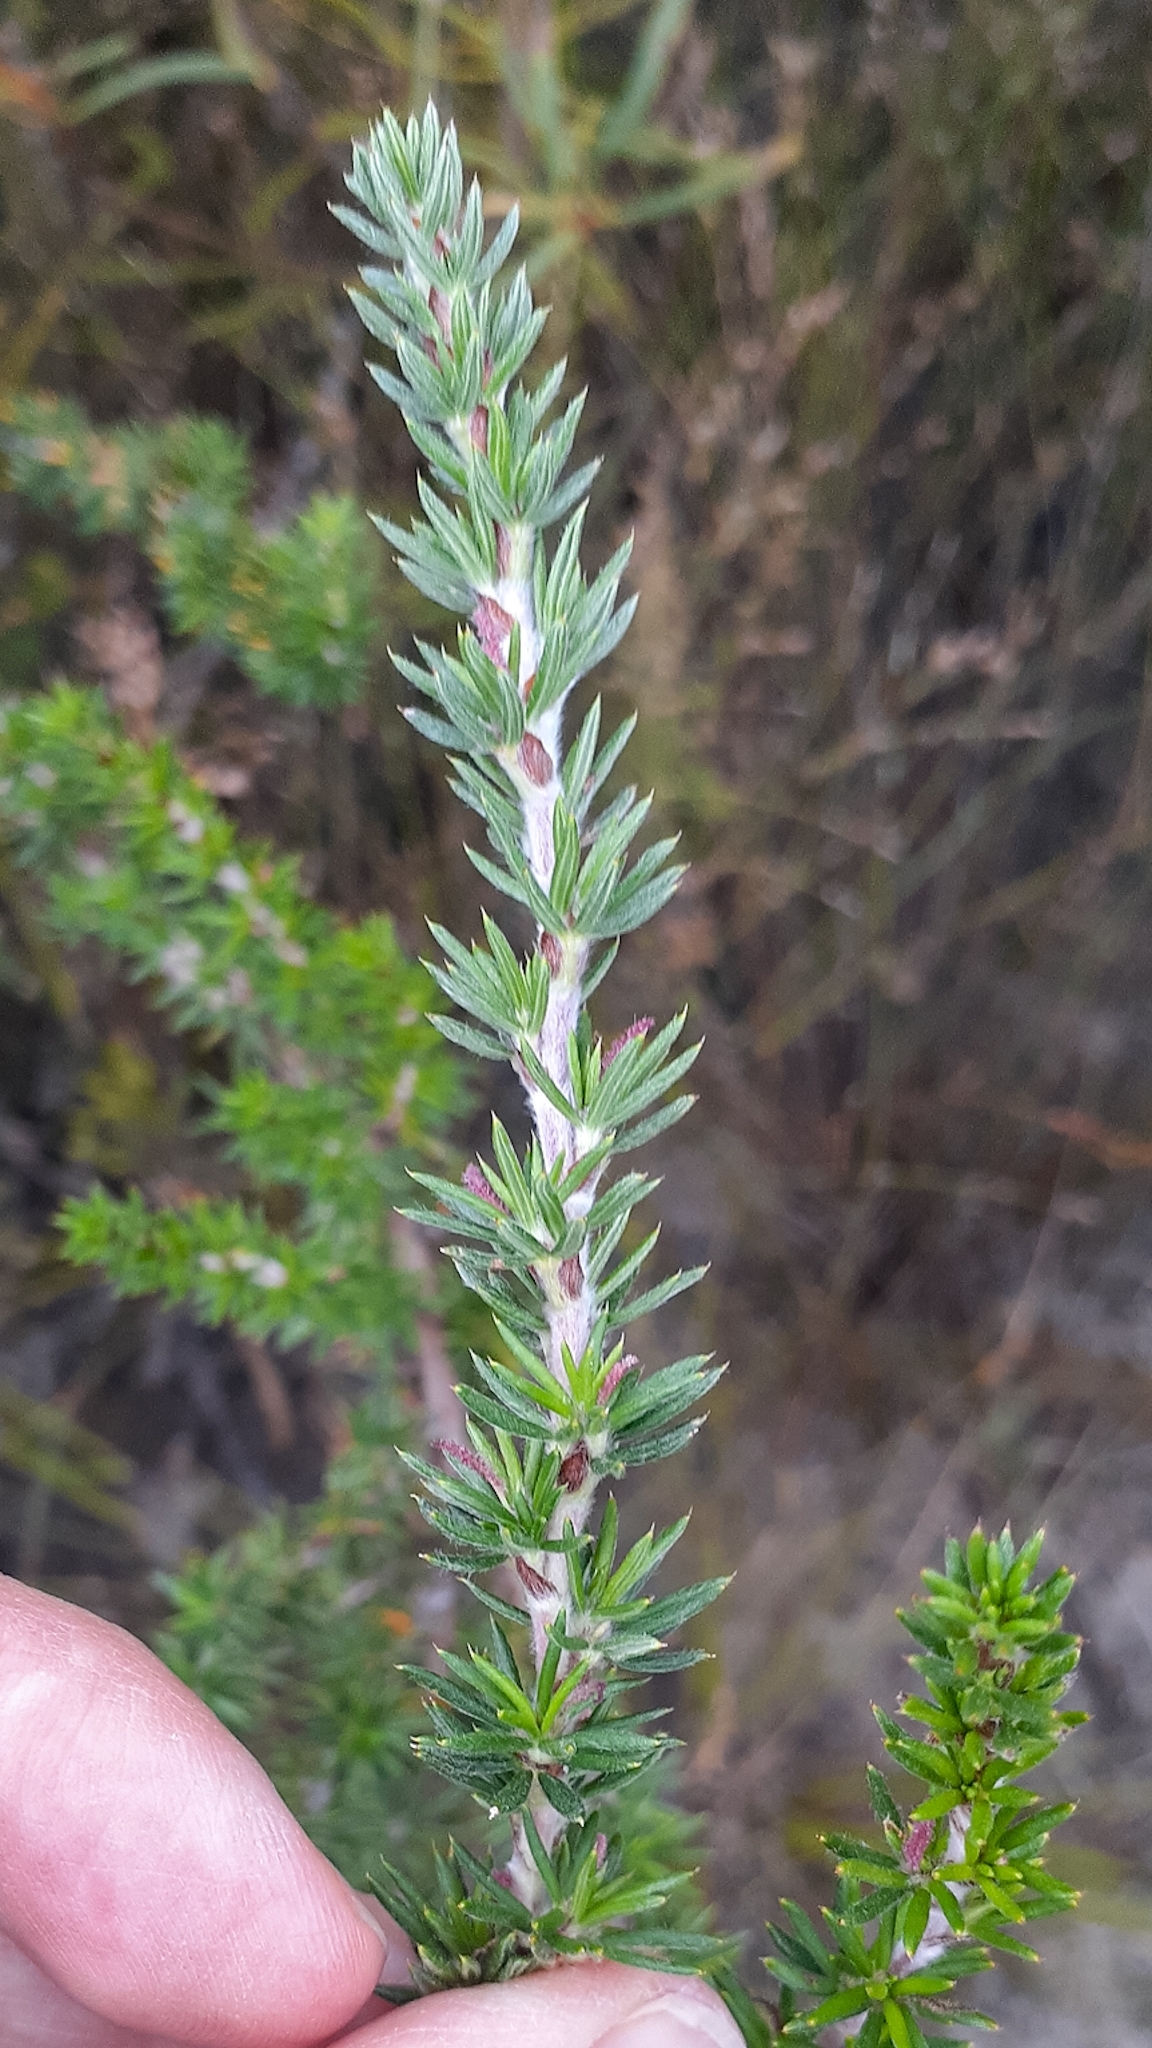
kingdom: Plantae
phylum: Tracheophyta
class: Magnoliopsida
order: Rosales
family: Rosaceae
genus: Cliffortia
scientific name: Cliffortia stricta
